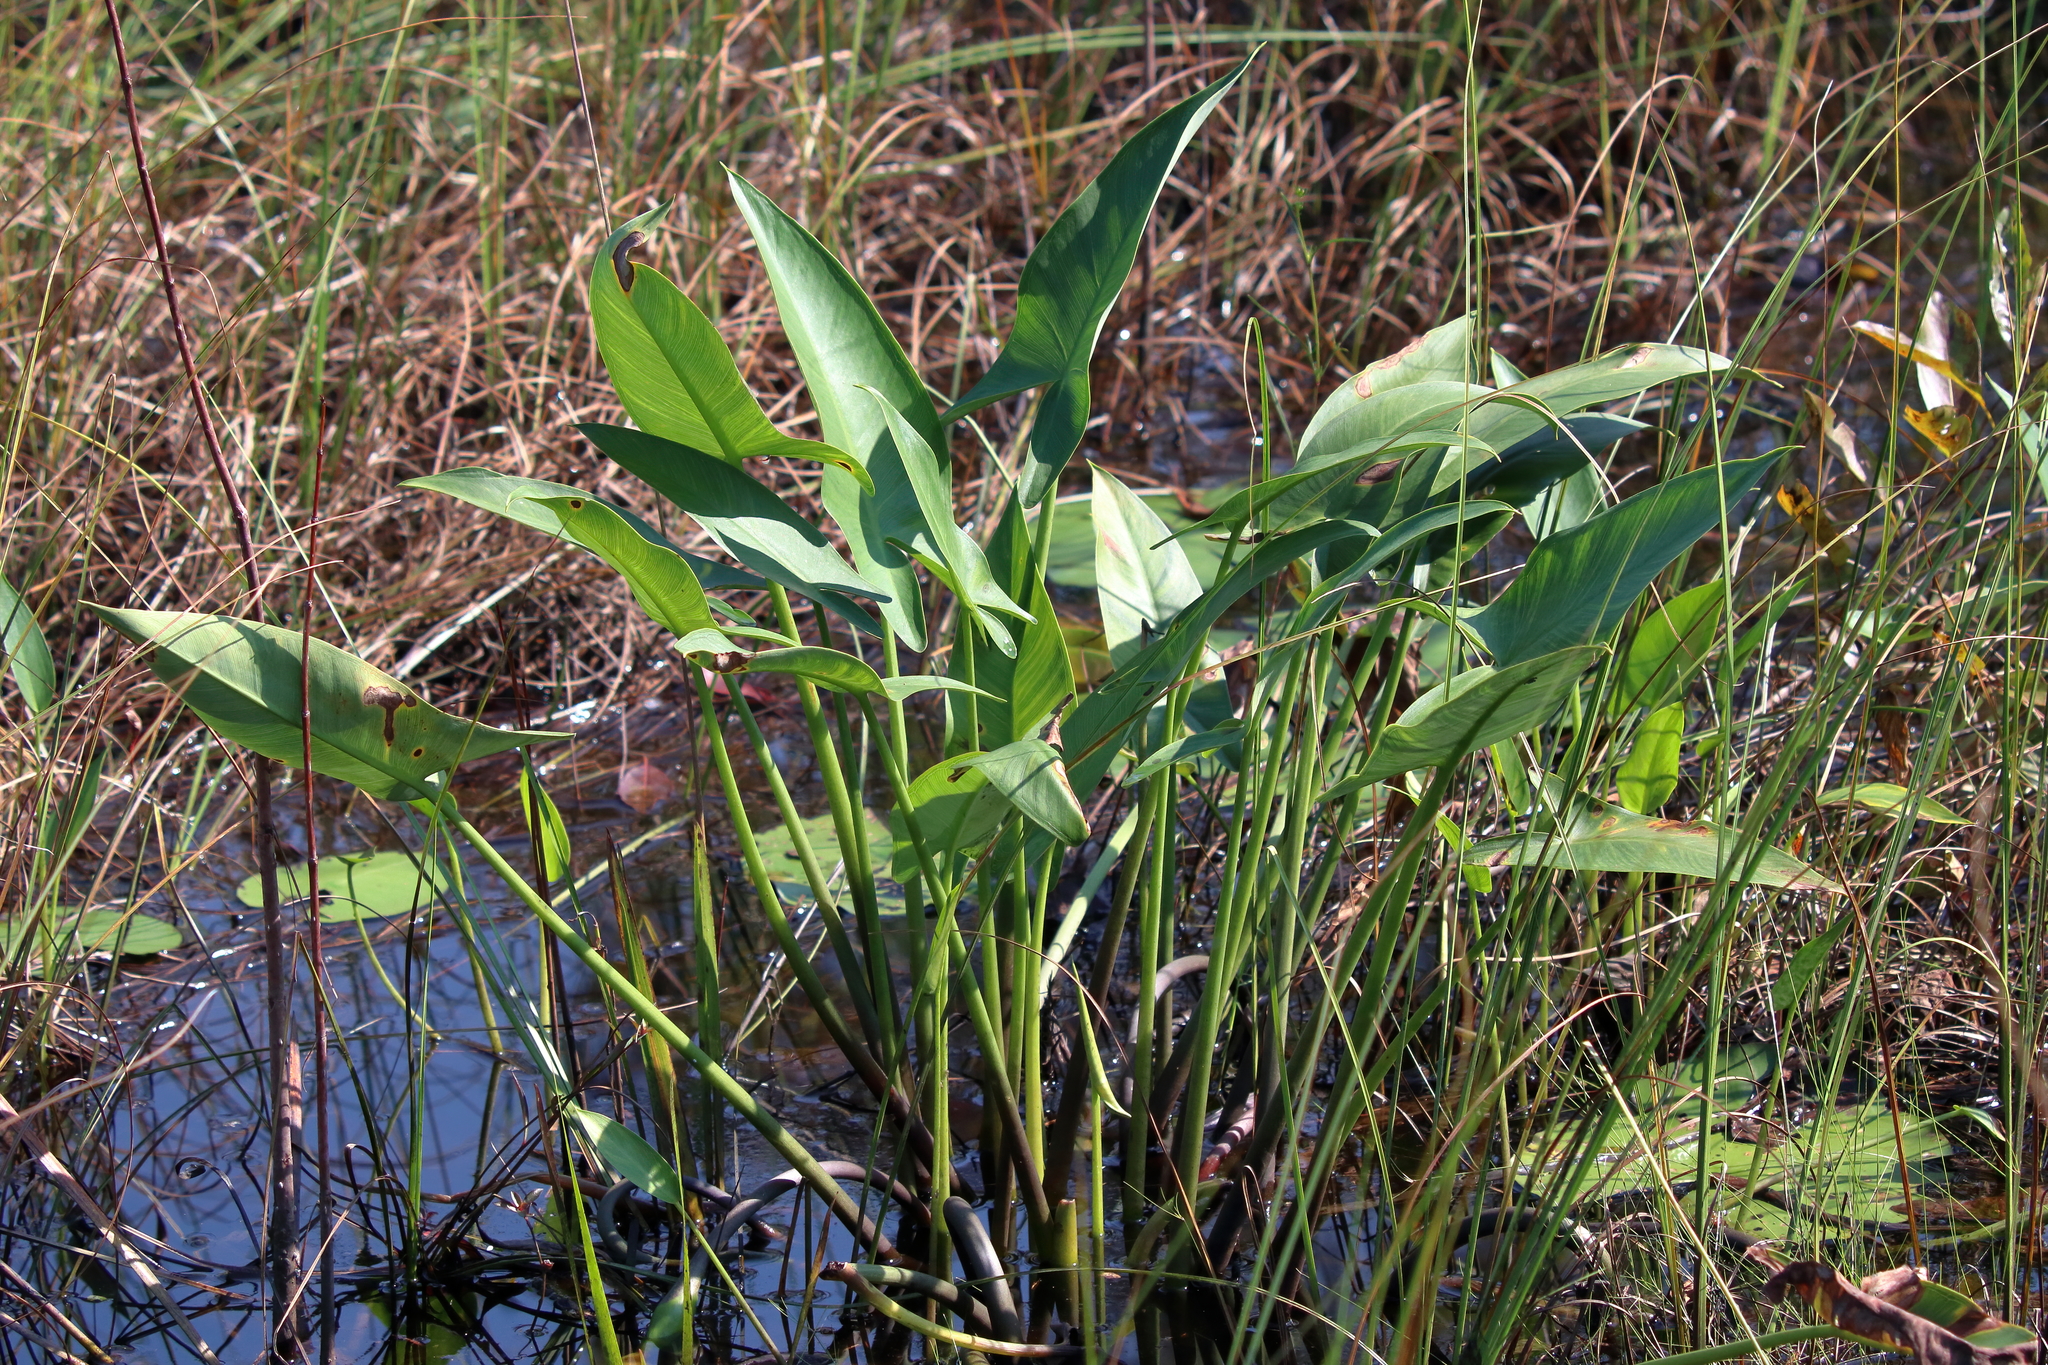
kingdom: Plantae
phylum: Tracheophyta
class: Liliopsida
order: Alismatales
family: Araceae
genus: Peltandra
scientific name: Peltandra virginica
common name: Arrow arum
